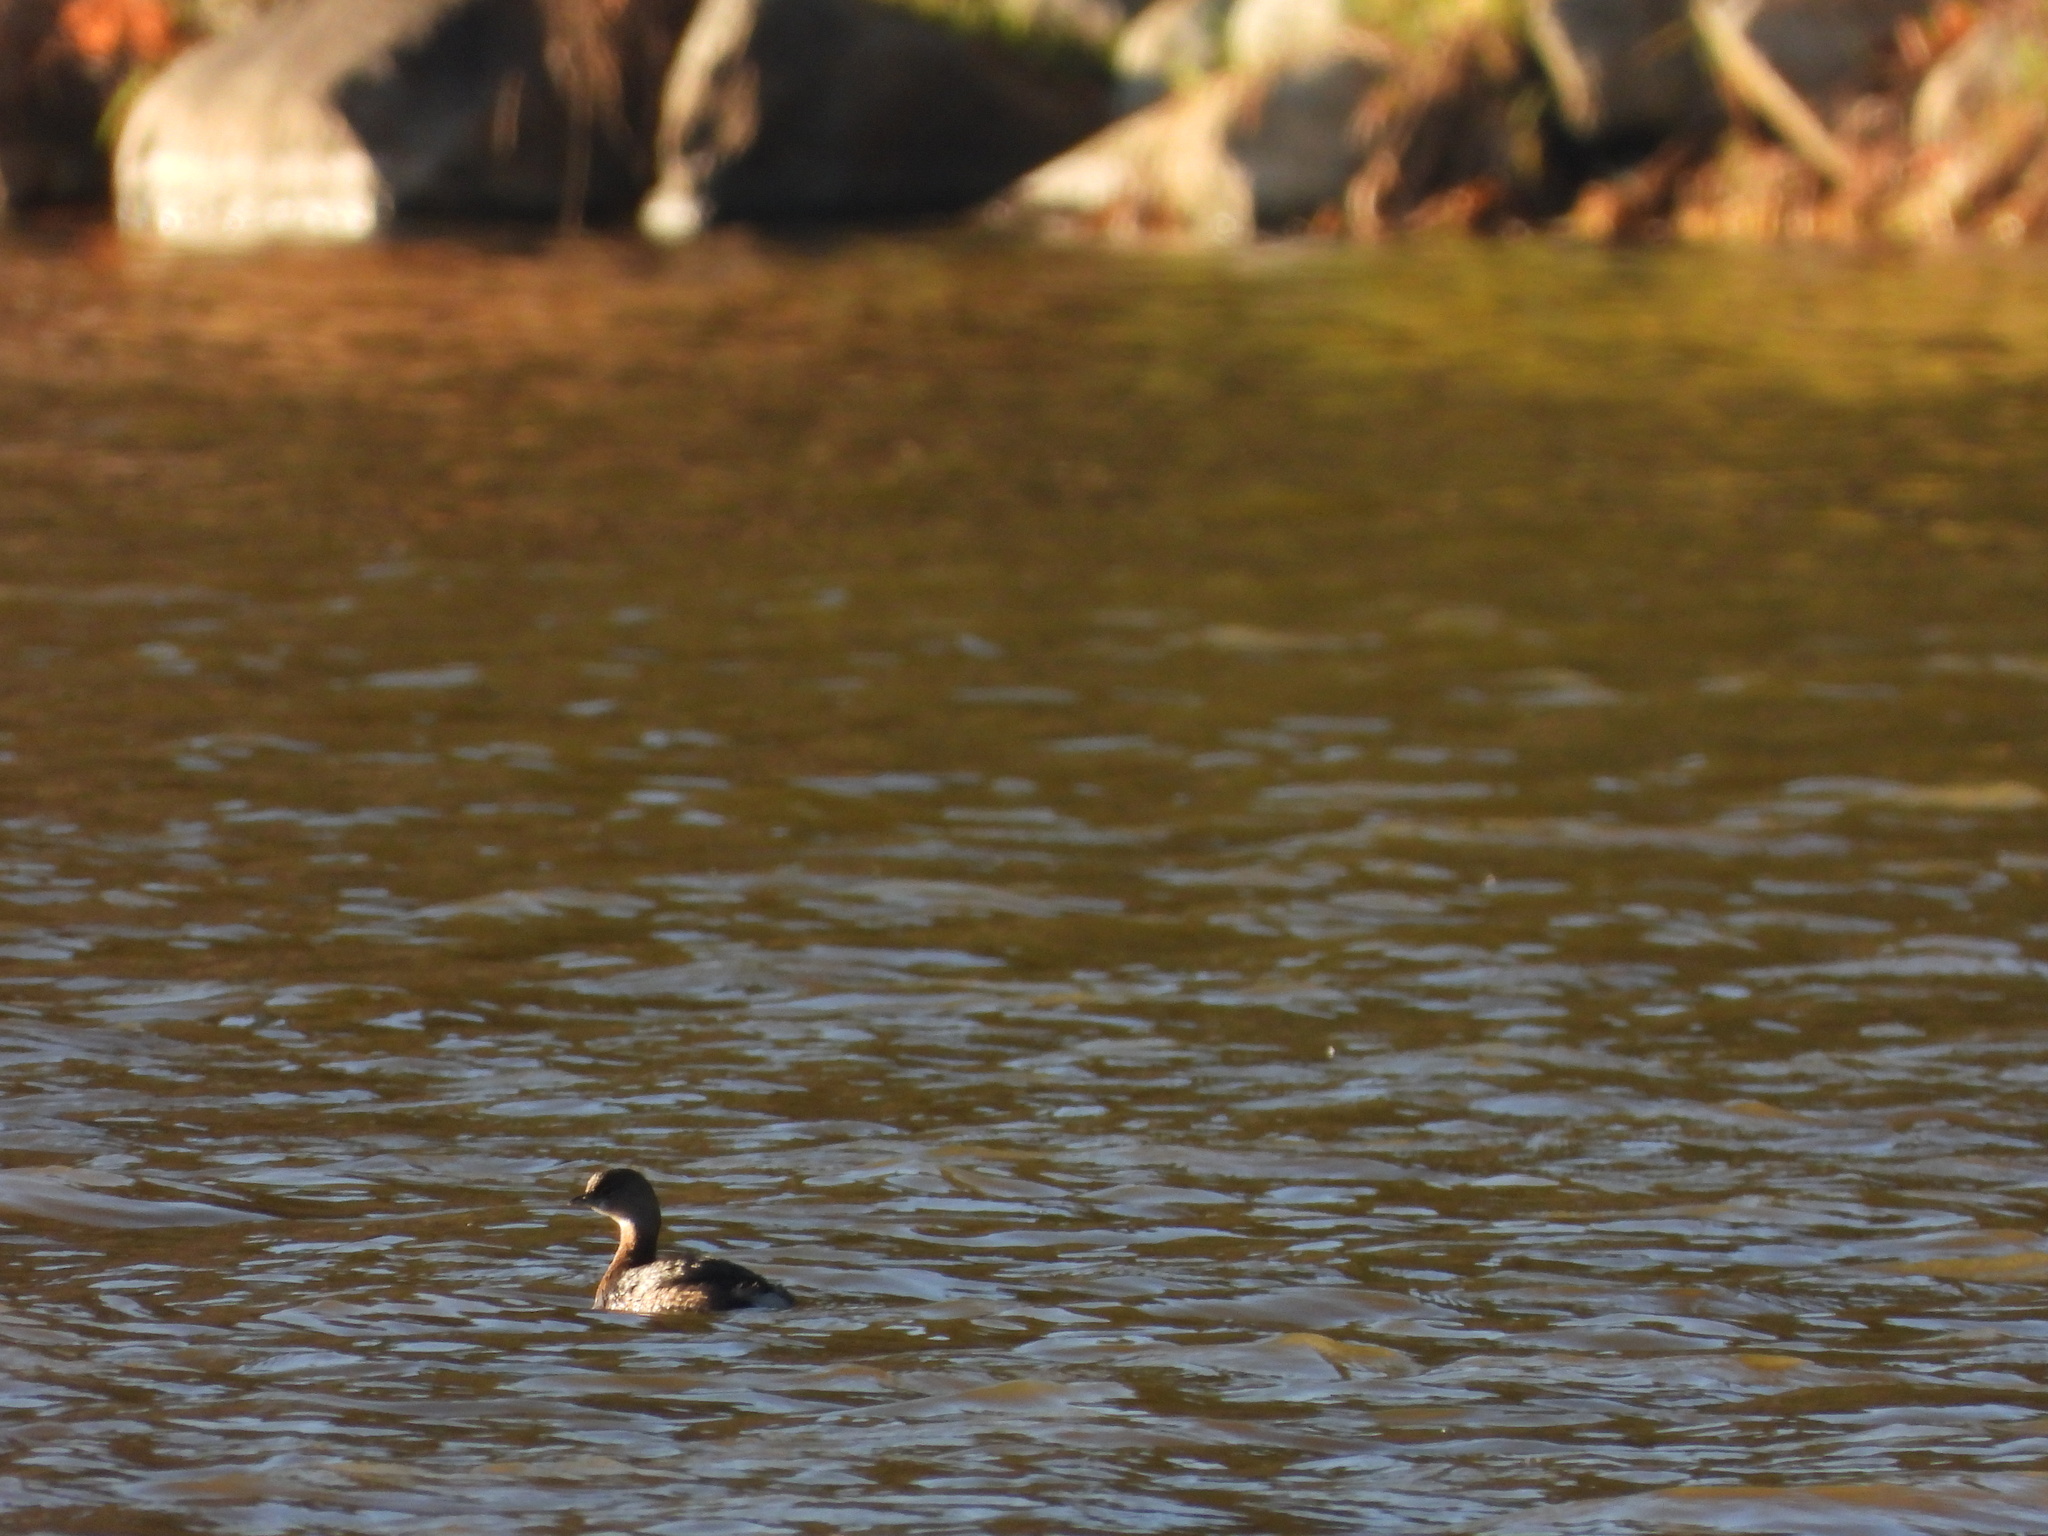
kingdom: Animalia
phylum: Chordata
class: Aves
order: Podicipediformes
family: Podicipedidae
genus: Podilymbus
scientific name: Podilymbus podiceps
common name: Pied-billed grebe
